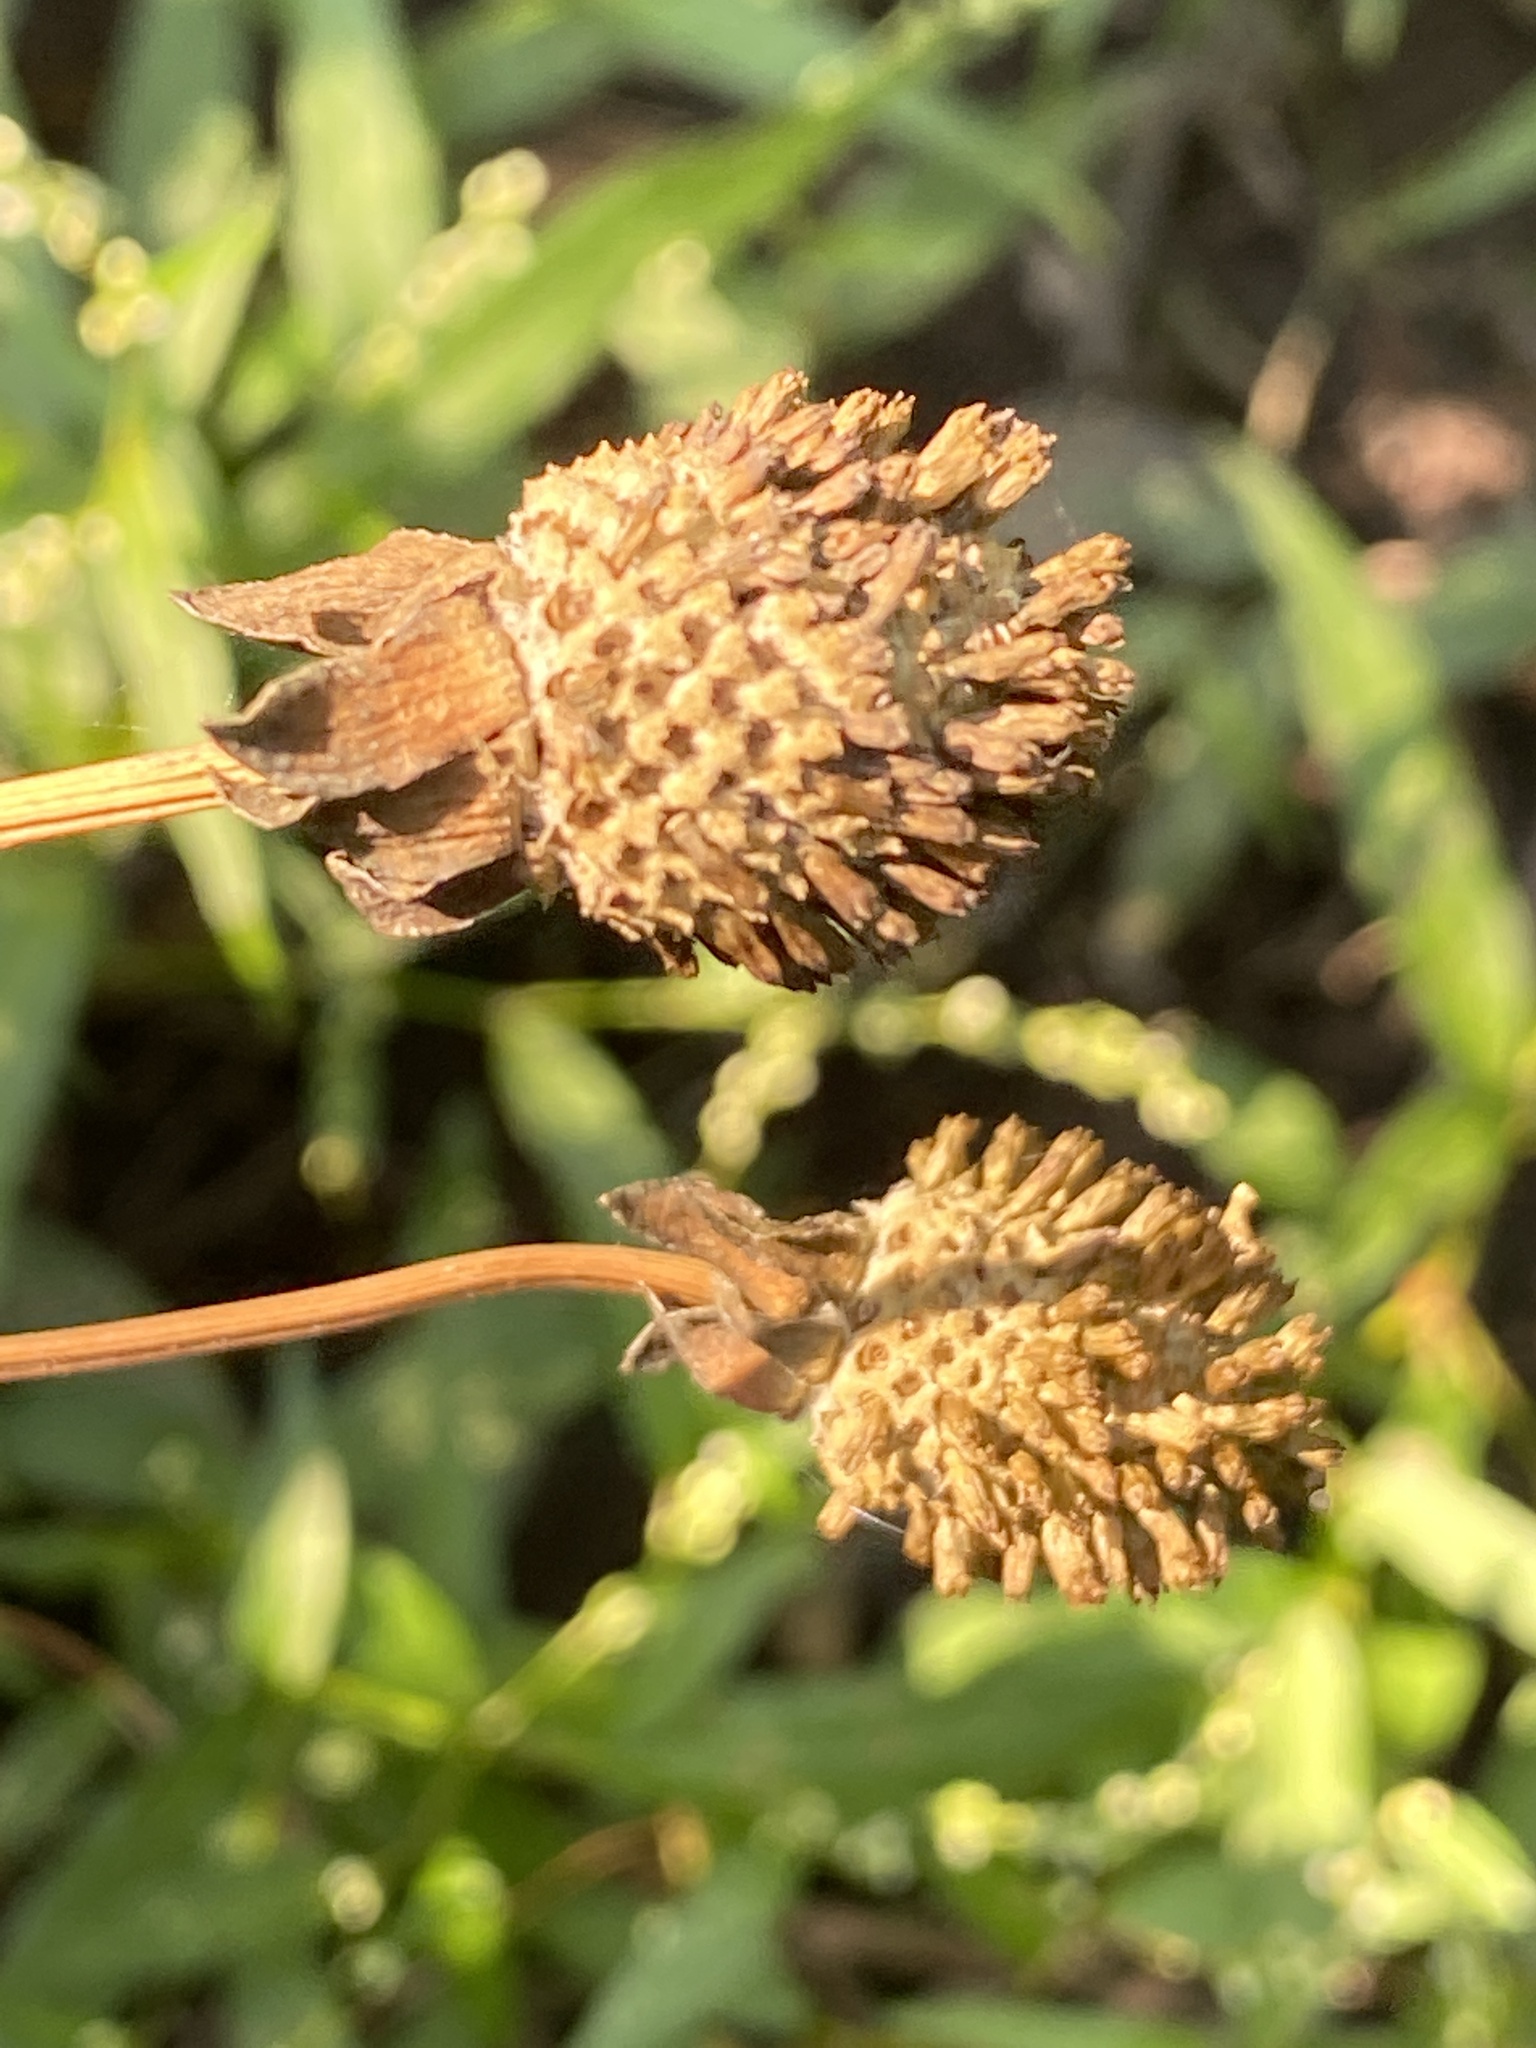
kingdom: Plantae
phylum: Tracheophyta
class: Magnoliopsida
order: Asterales
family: Asteraceae
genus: Rudbeckia
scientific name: Rudbeckia laciniata
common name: Coneflower
